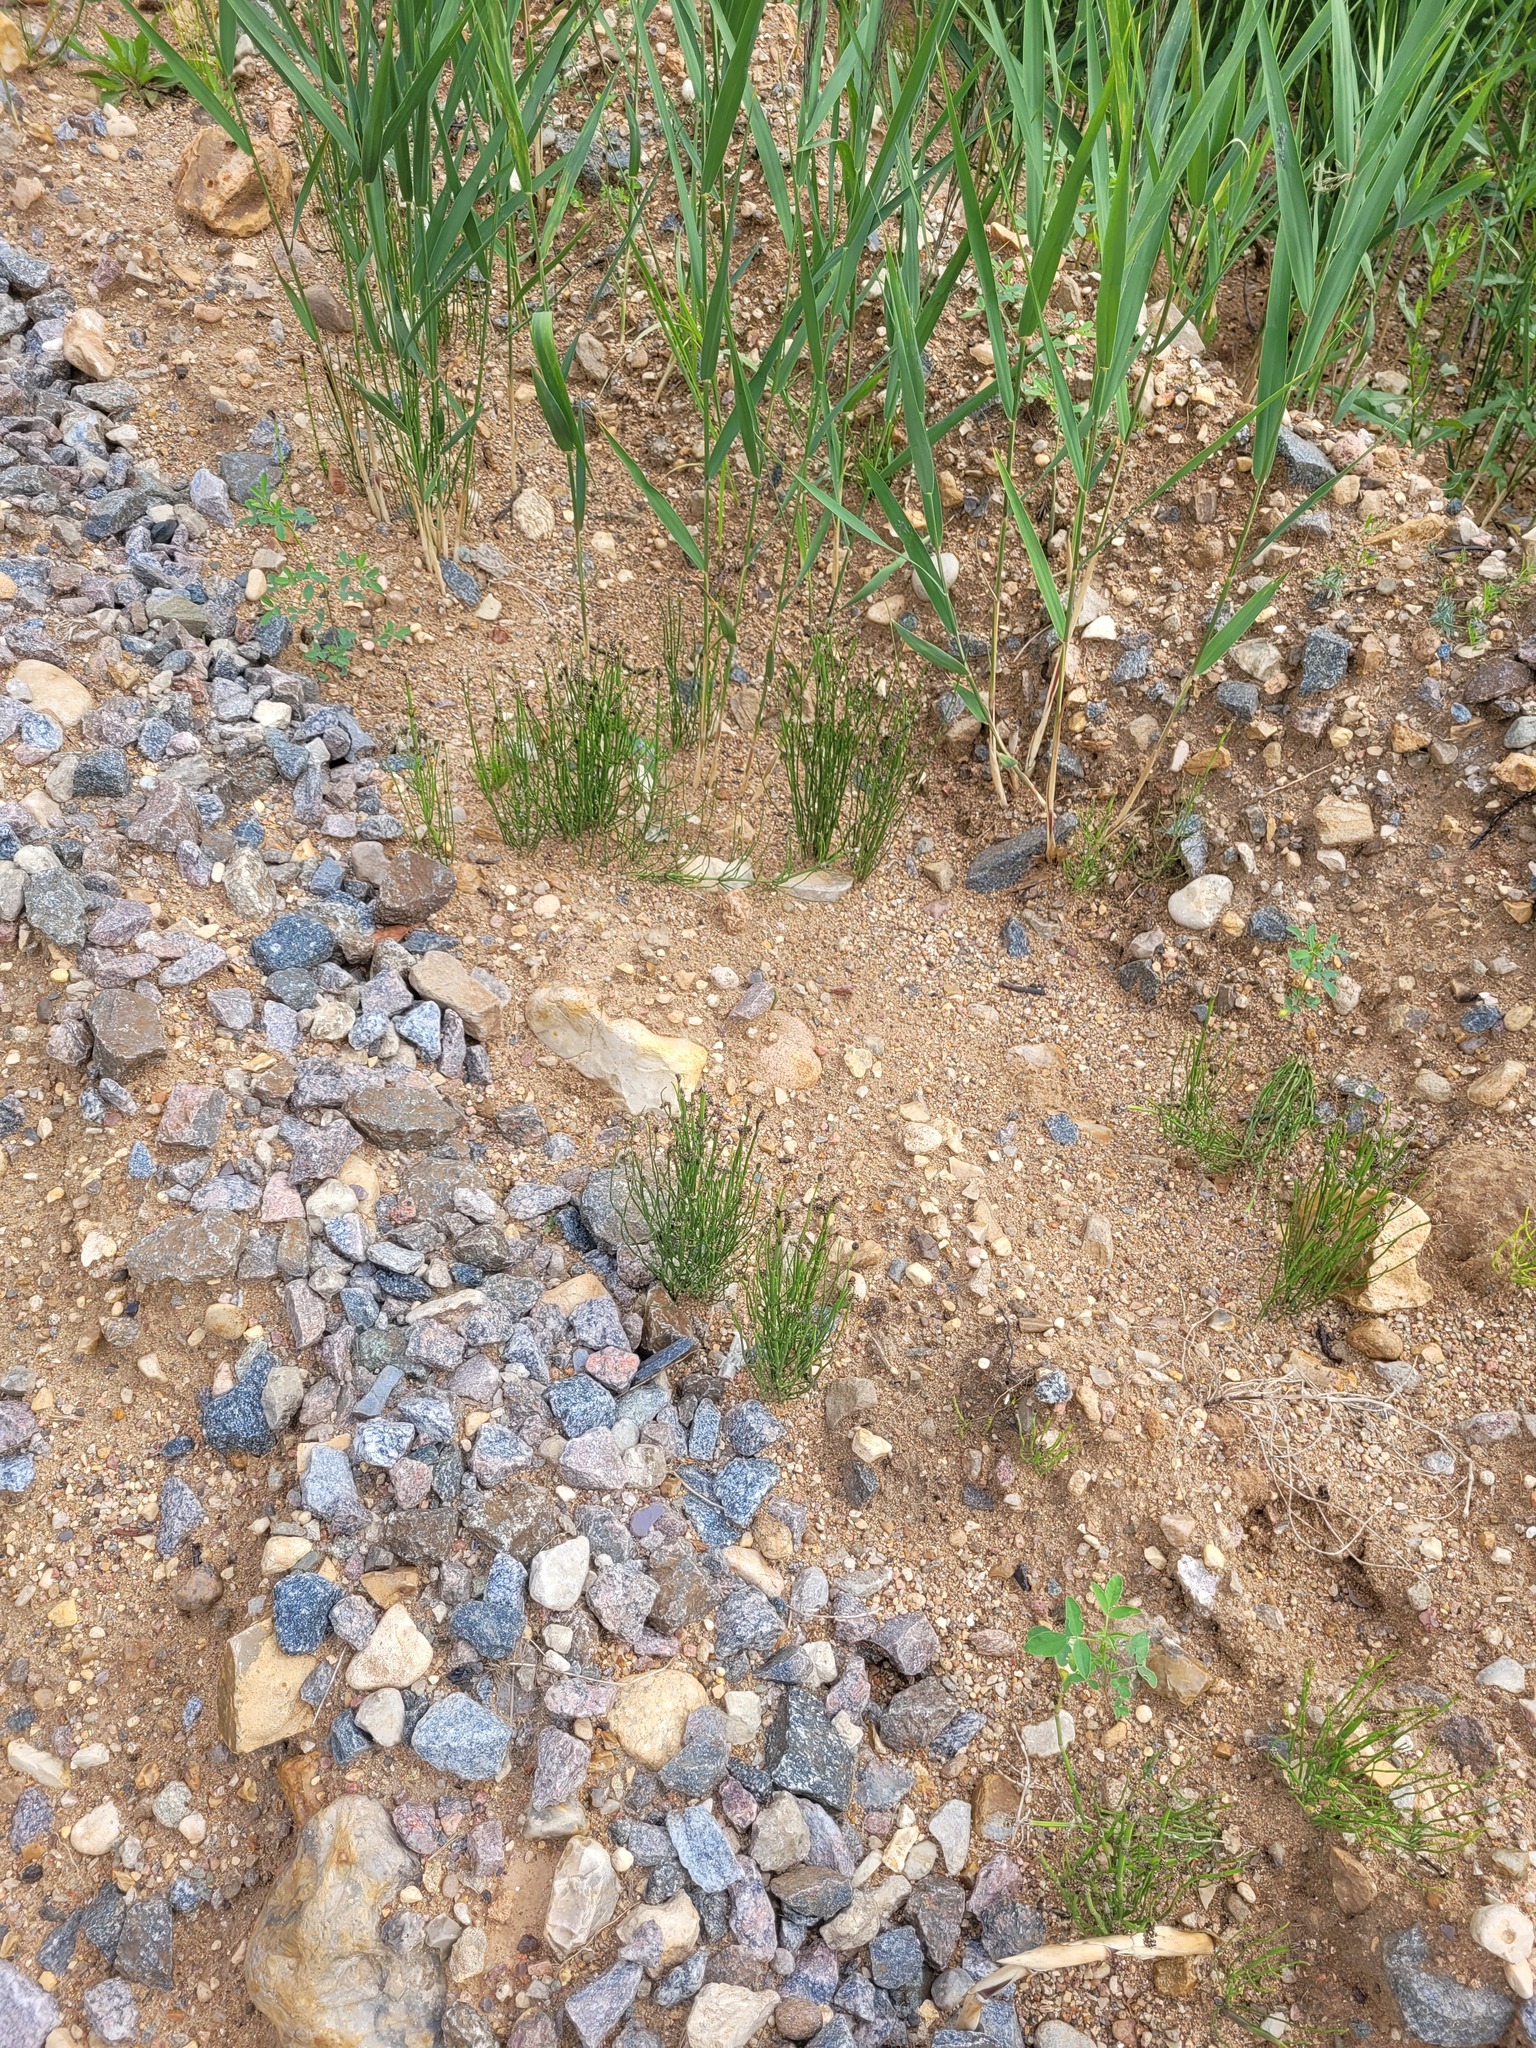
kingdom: Plantae
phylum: Tracheophyta
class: Polypodiopsida
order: Equisetales
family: Equisetaceae
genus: Equisetum
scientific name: Equisetum palustre
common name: Marsh horsetail
